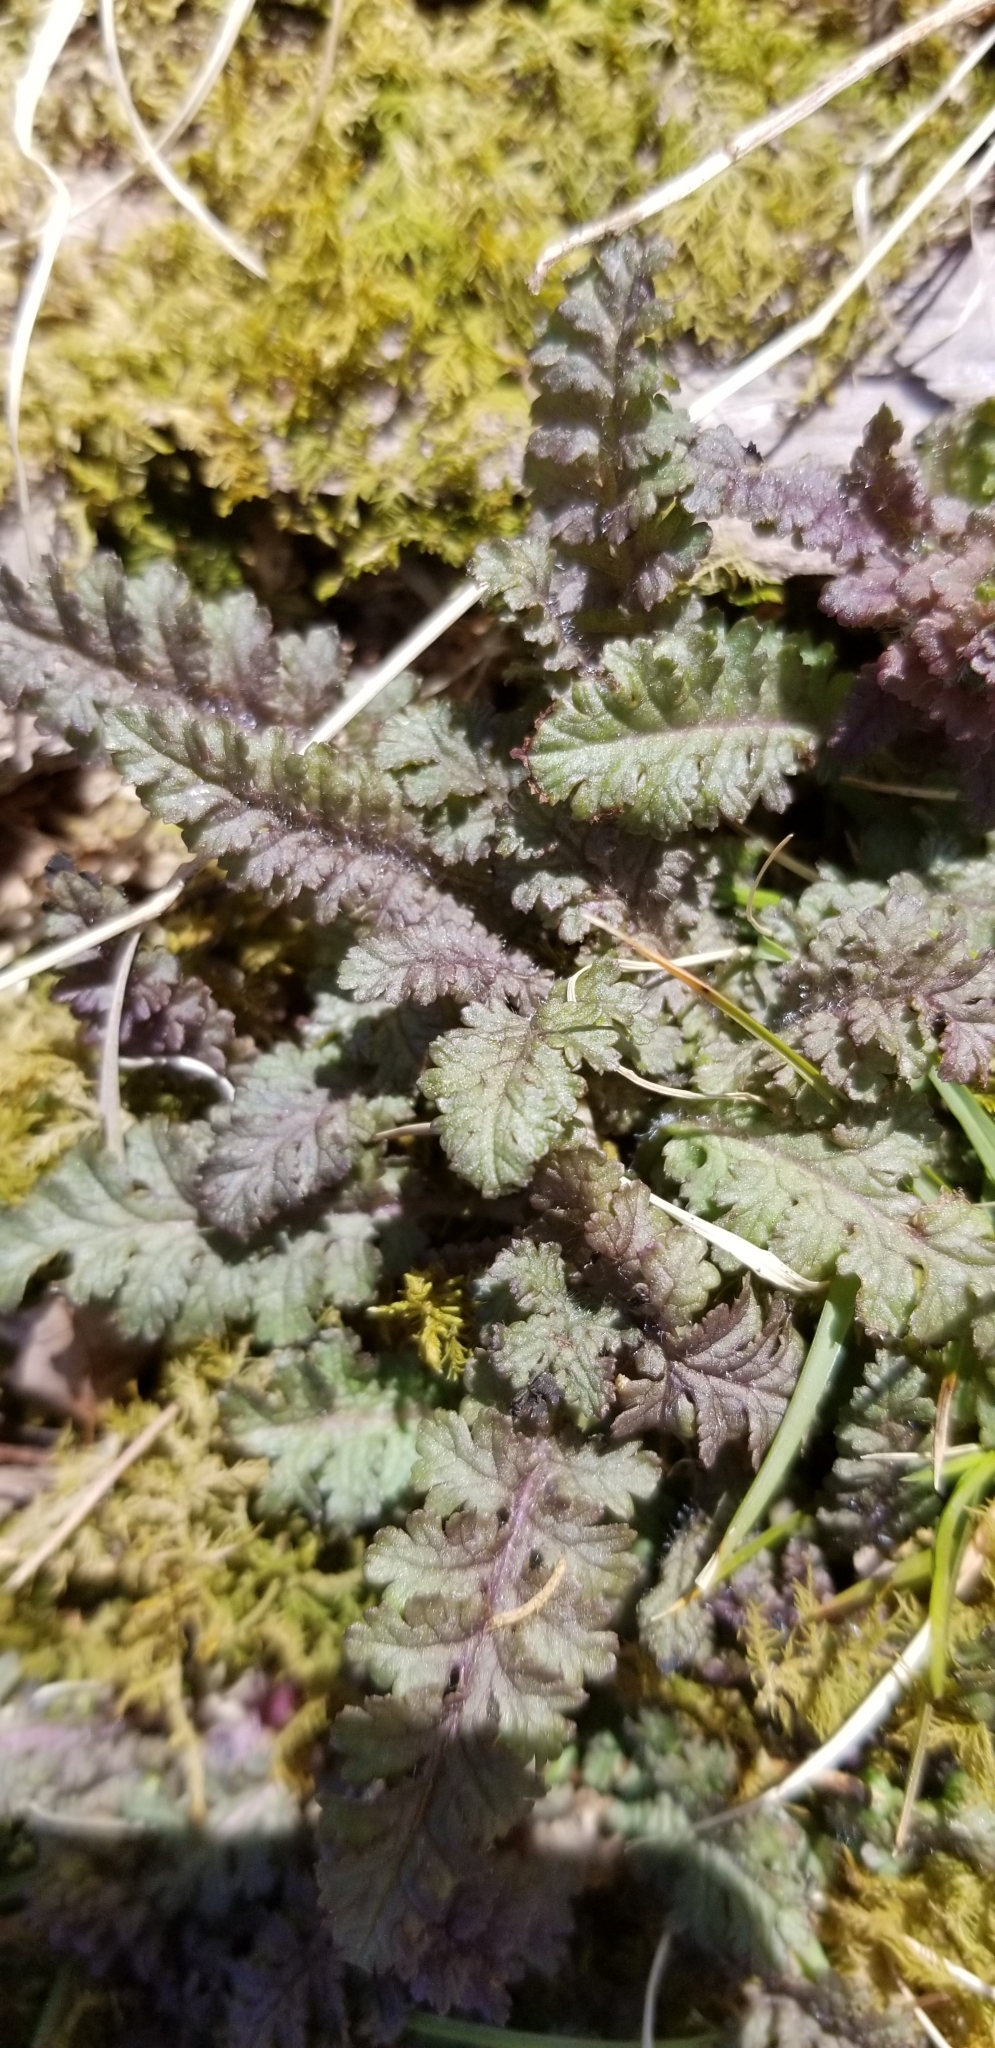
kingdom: Plantae
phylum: Tracheophyta
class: Magnoliopsida
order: Lamiales
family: Orobanchaceae
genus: Pedicularis
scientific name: Pedicularis canadensis
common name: Early lousewort
